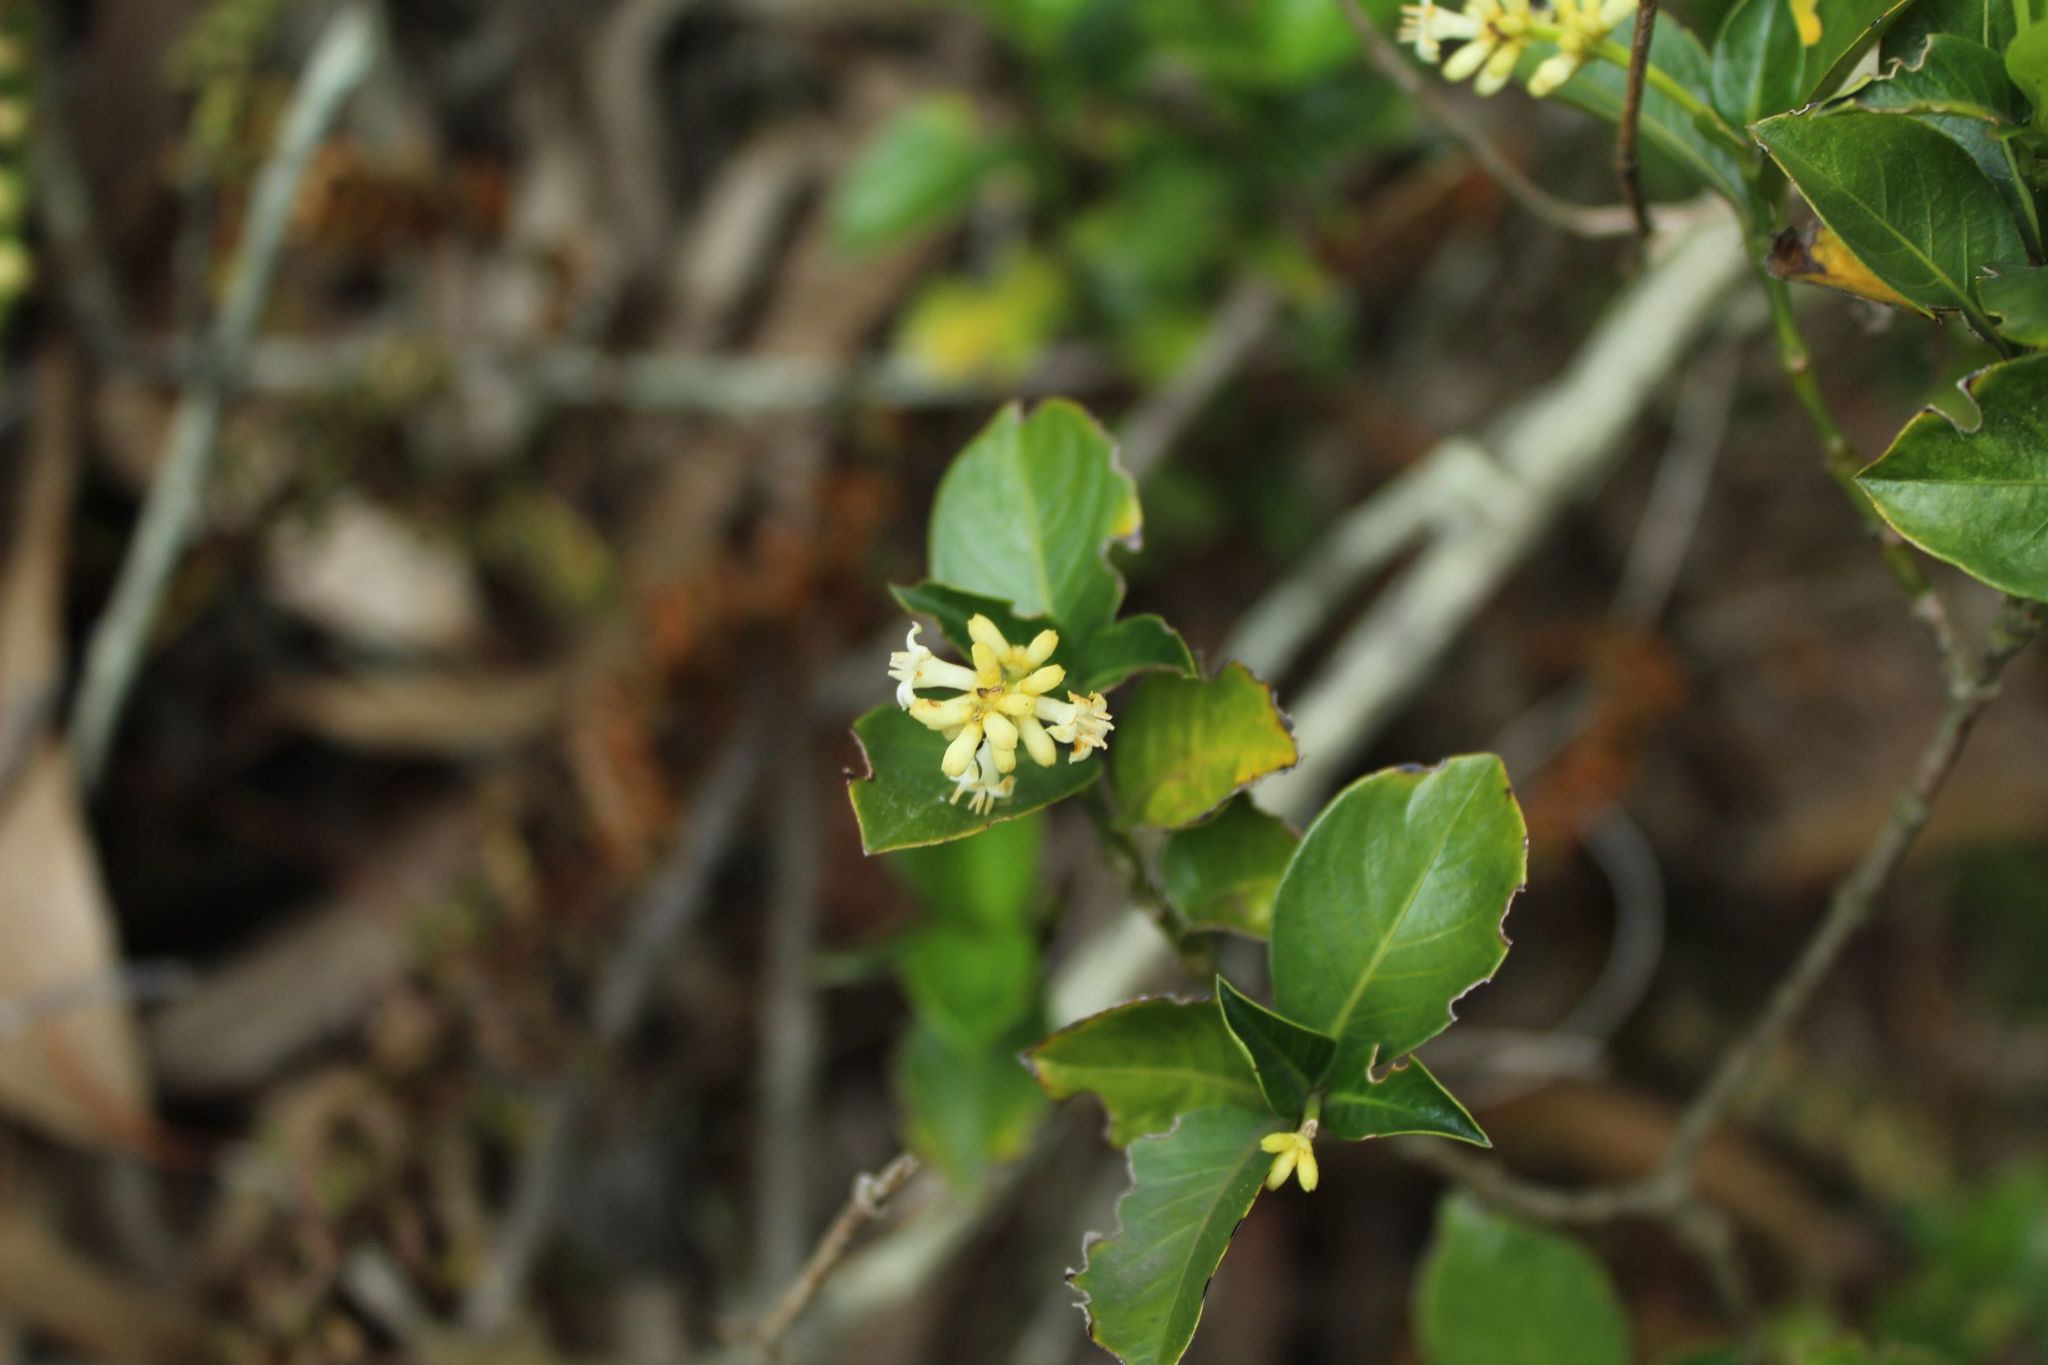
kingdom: Plantae
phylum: Tracheophyta
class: Magnoliopsida
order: Gentianales
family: Rubiaceae
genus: Palicourea
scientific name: Palicourea boqueronensis
